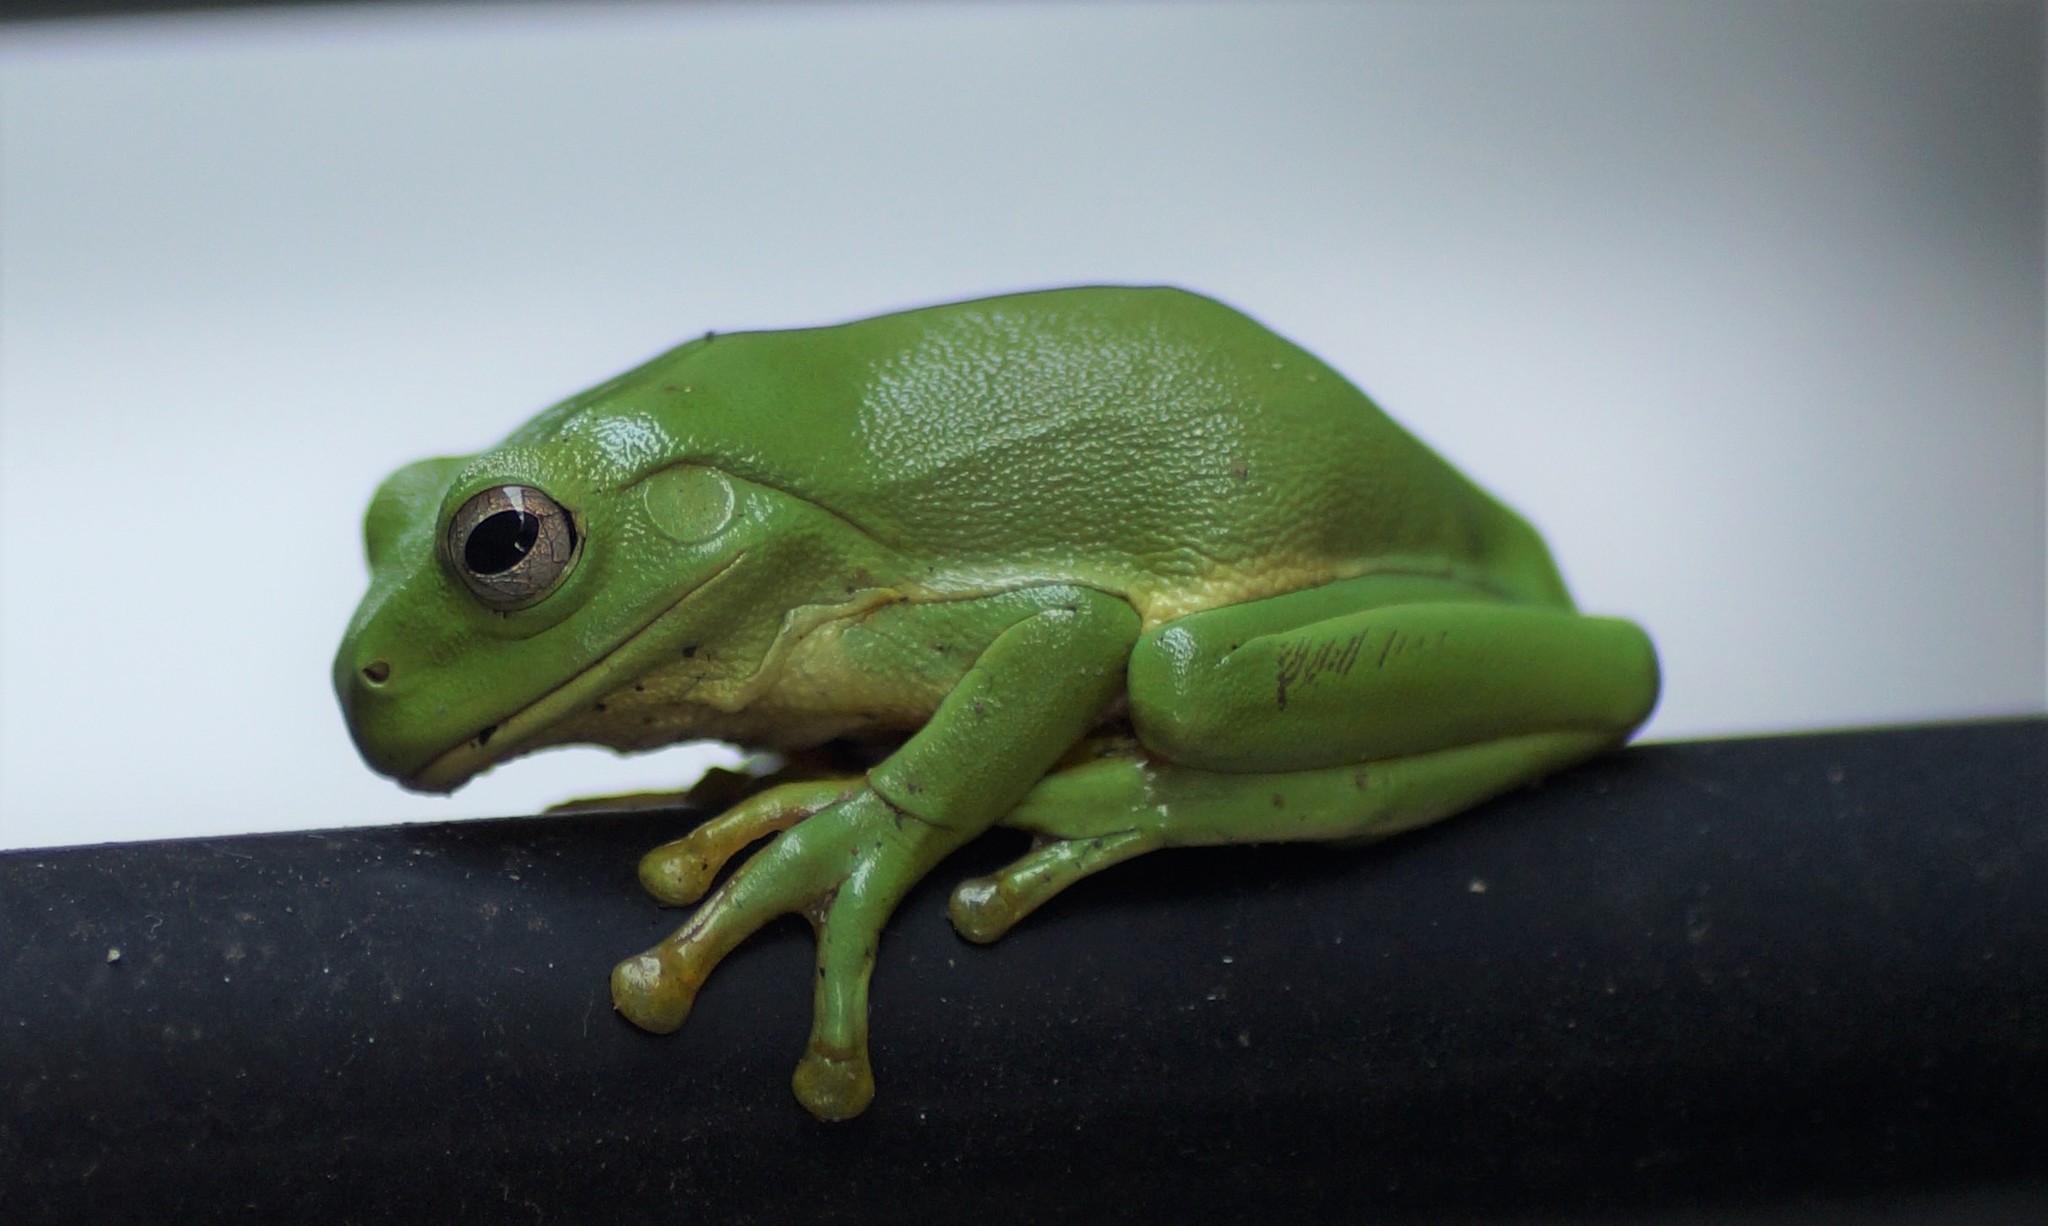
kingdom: Animalia
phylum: Chordata
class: Amphibia
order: Anura
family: Pelodryadidae
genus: Ranoidea
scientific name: Ranoidea caerulea
